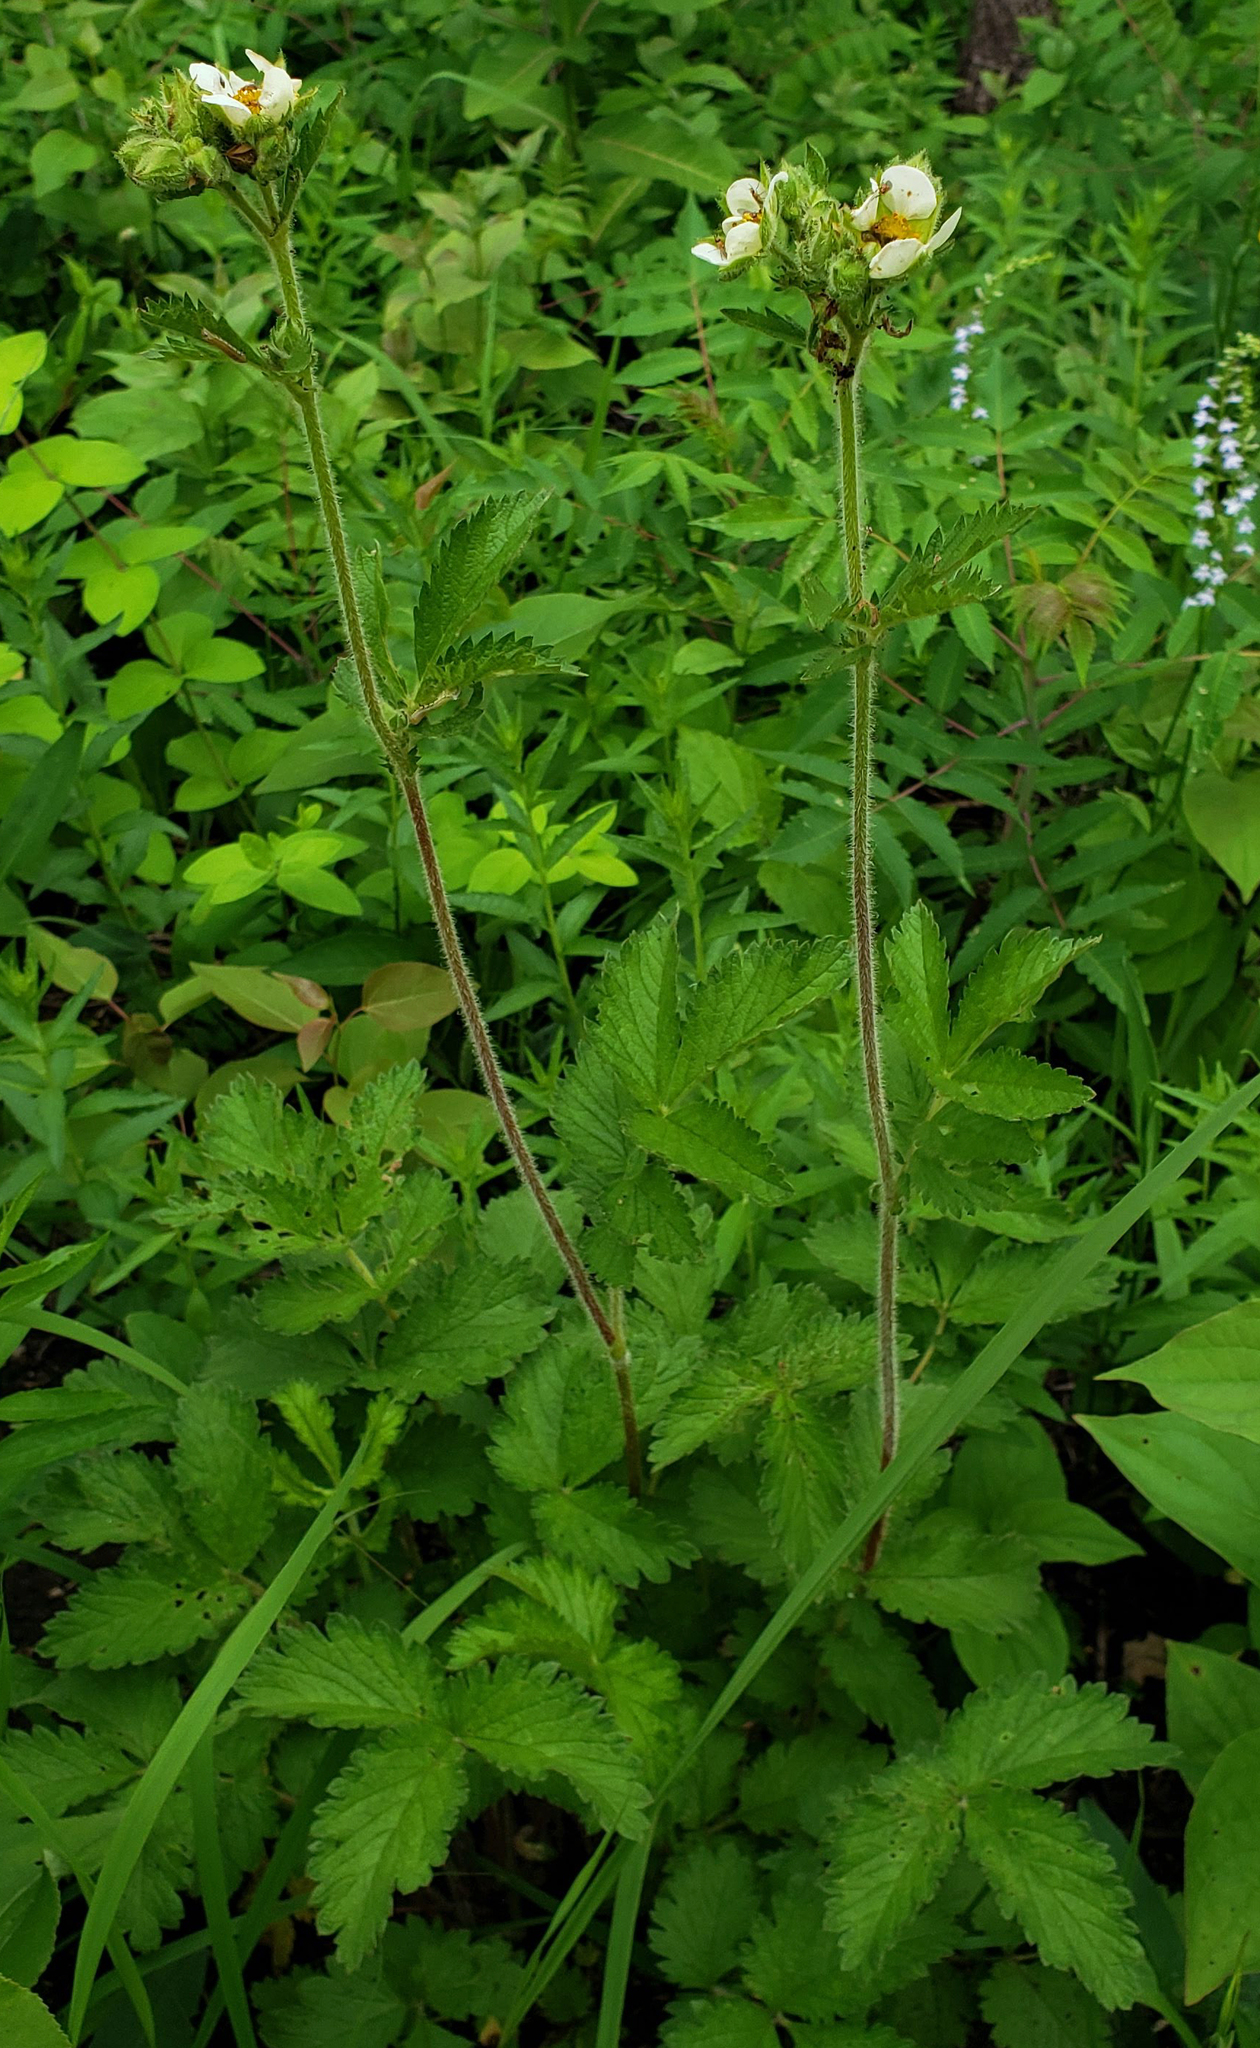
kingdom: Plantae
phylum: Tracheophyta
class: Magnoliopsida
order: Rosales
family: Rosaceae
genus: Drymocallis
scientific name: Drymocallis arguta
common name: Tall cinquefoil
